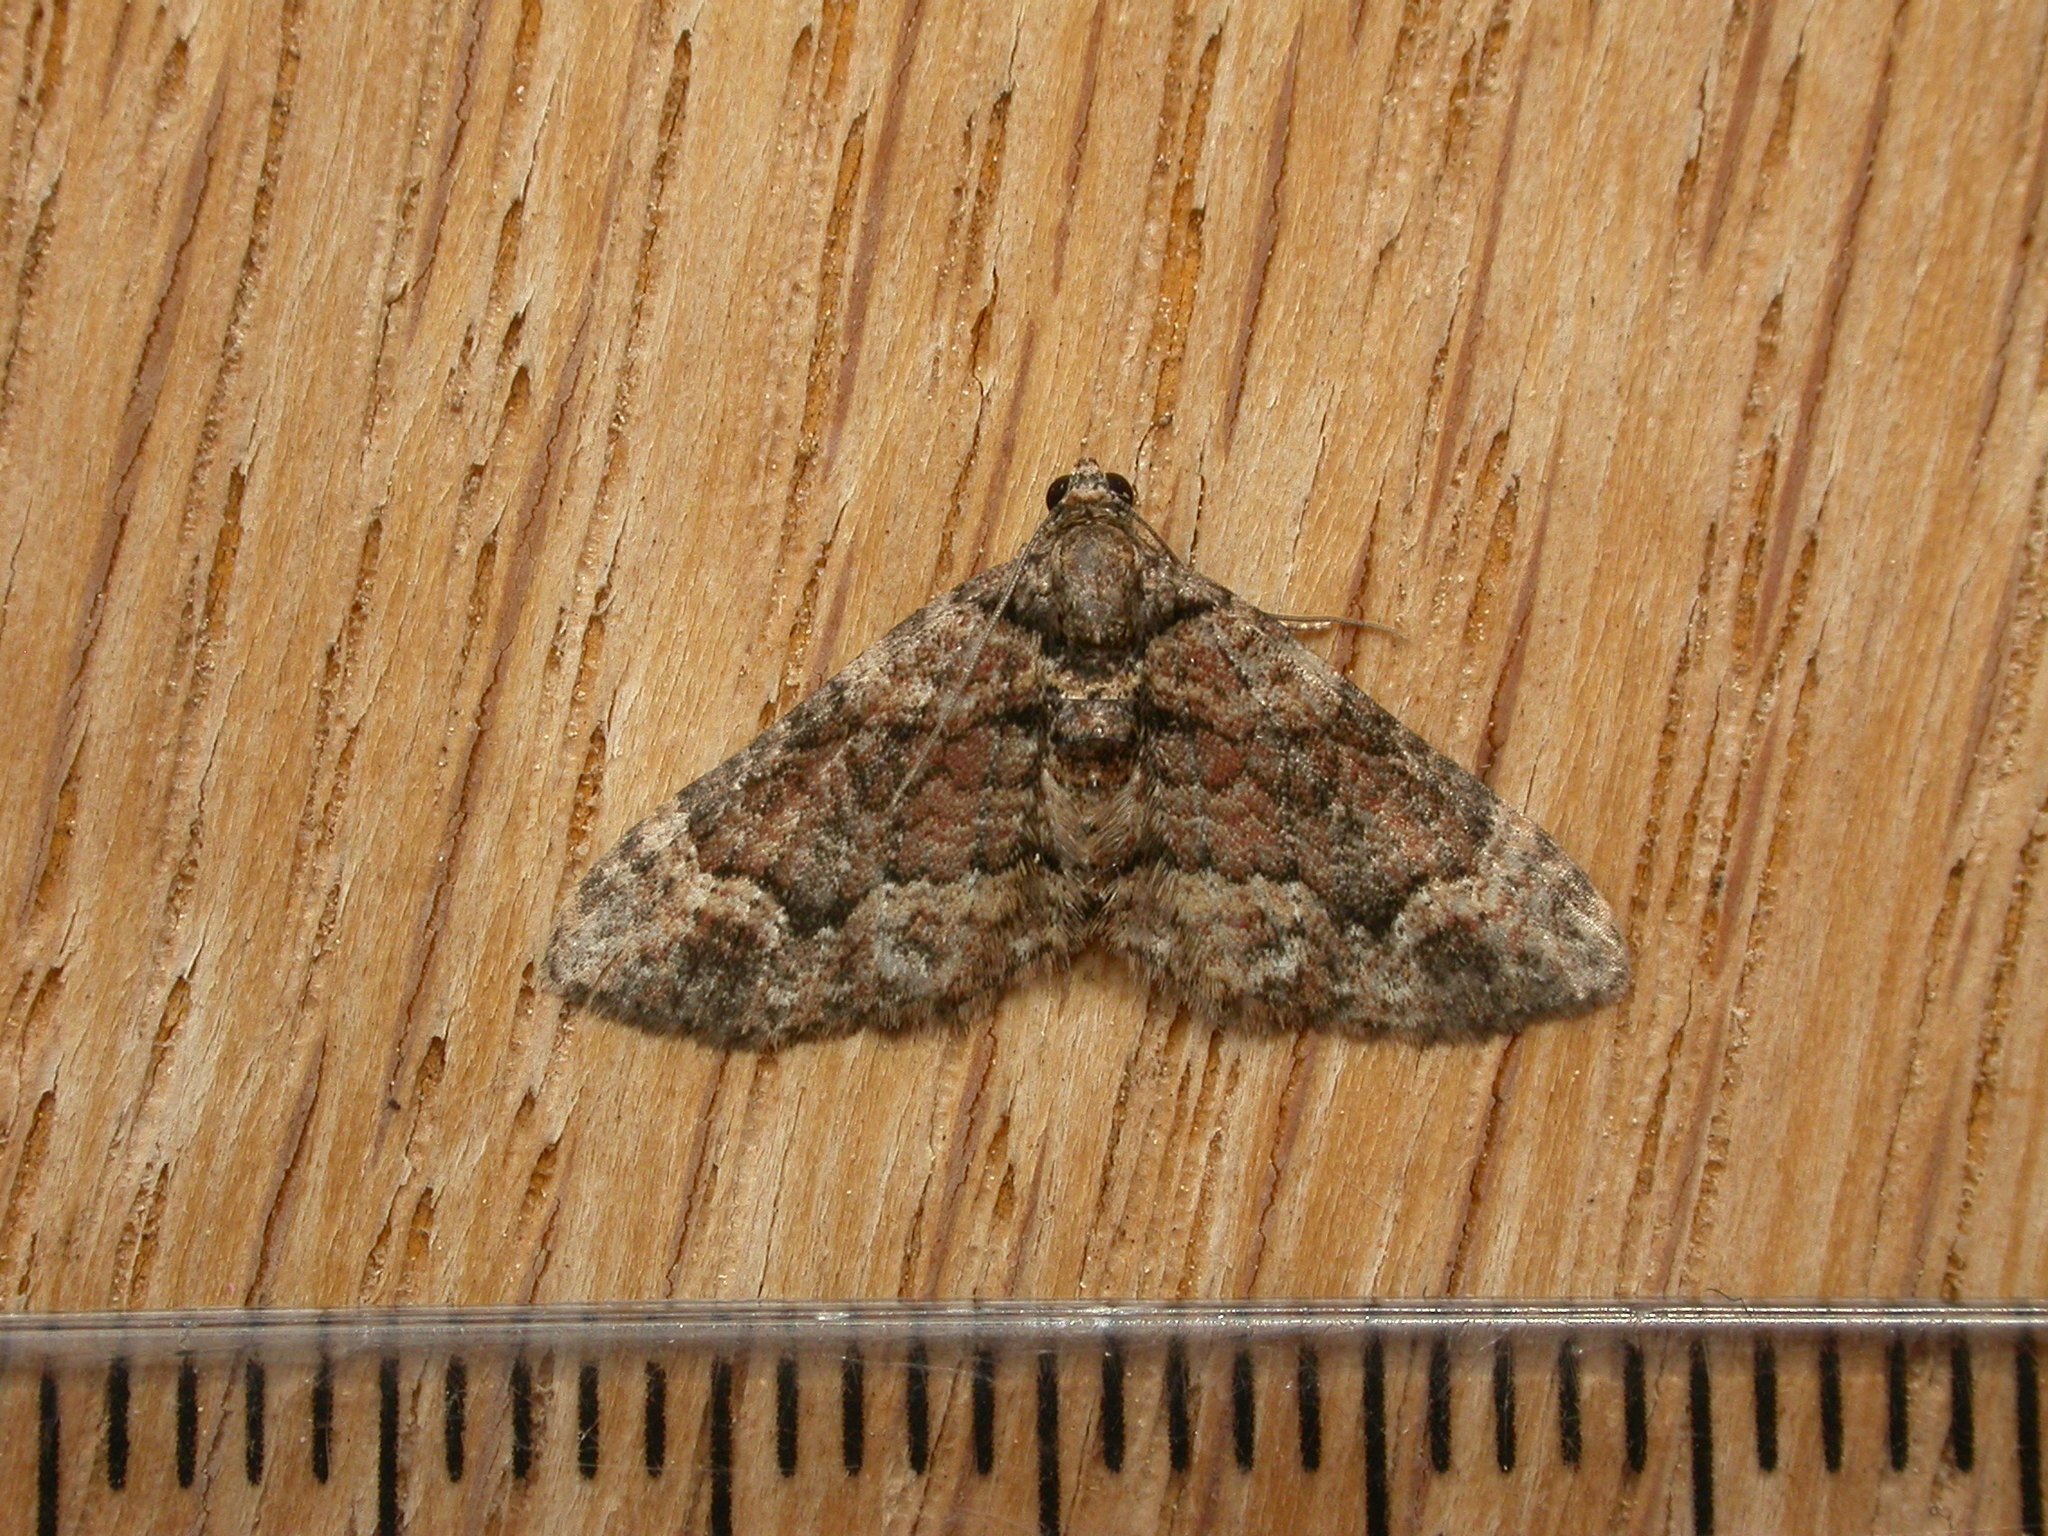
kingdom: Animalia
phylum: Arthropoda
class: Insecta
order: Lepidoptera
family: Geometridae
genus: Epyaxa
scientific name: Epyaxa sodaliata
